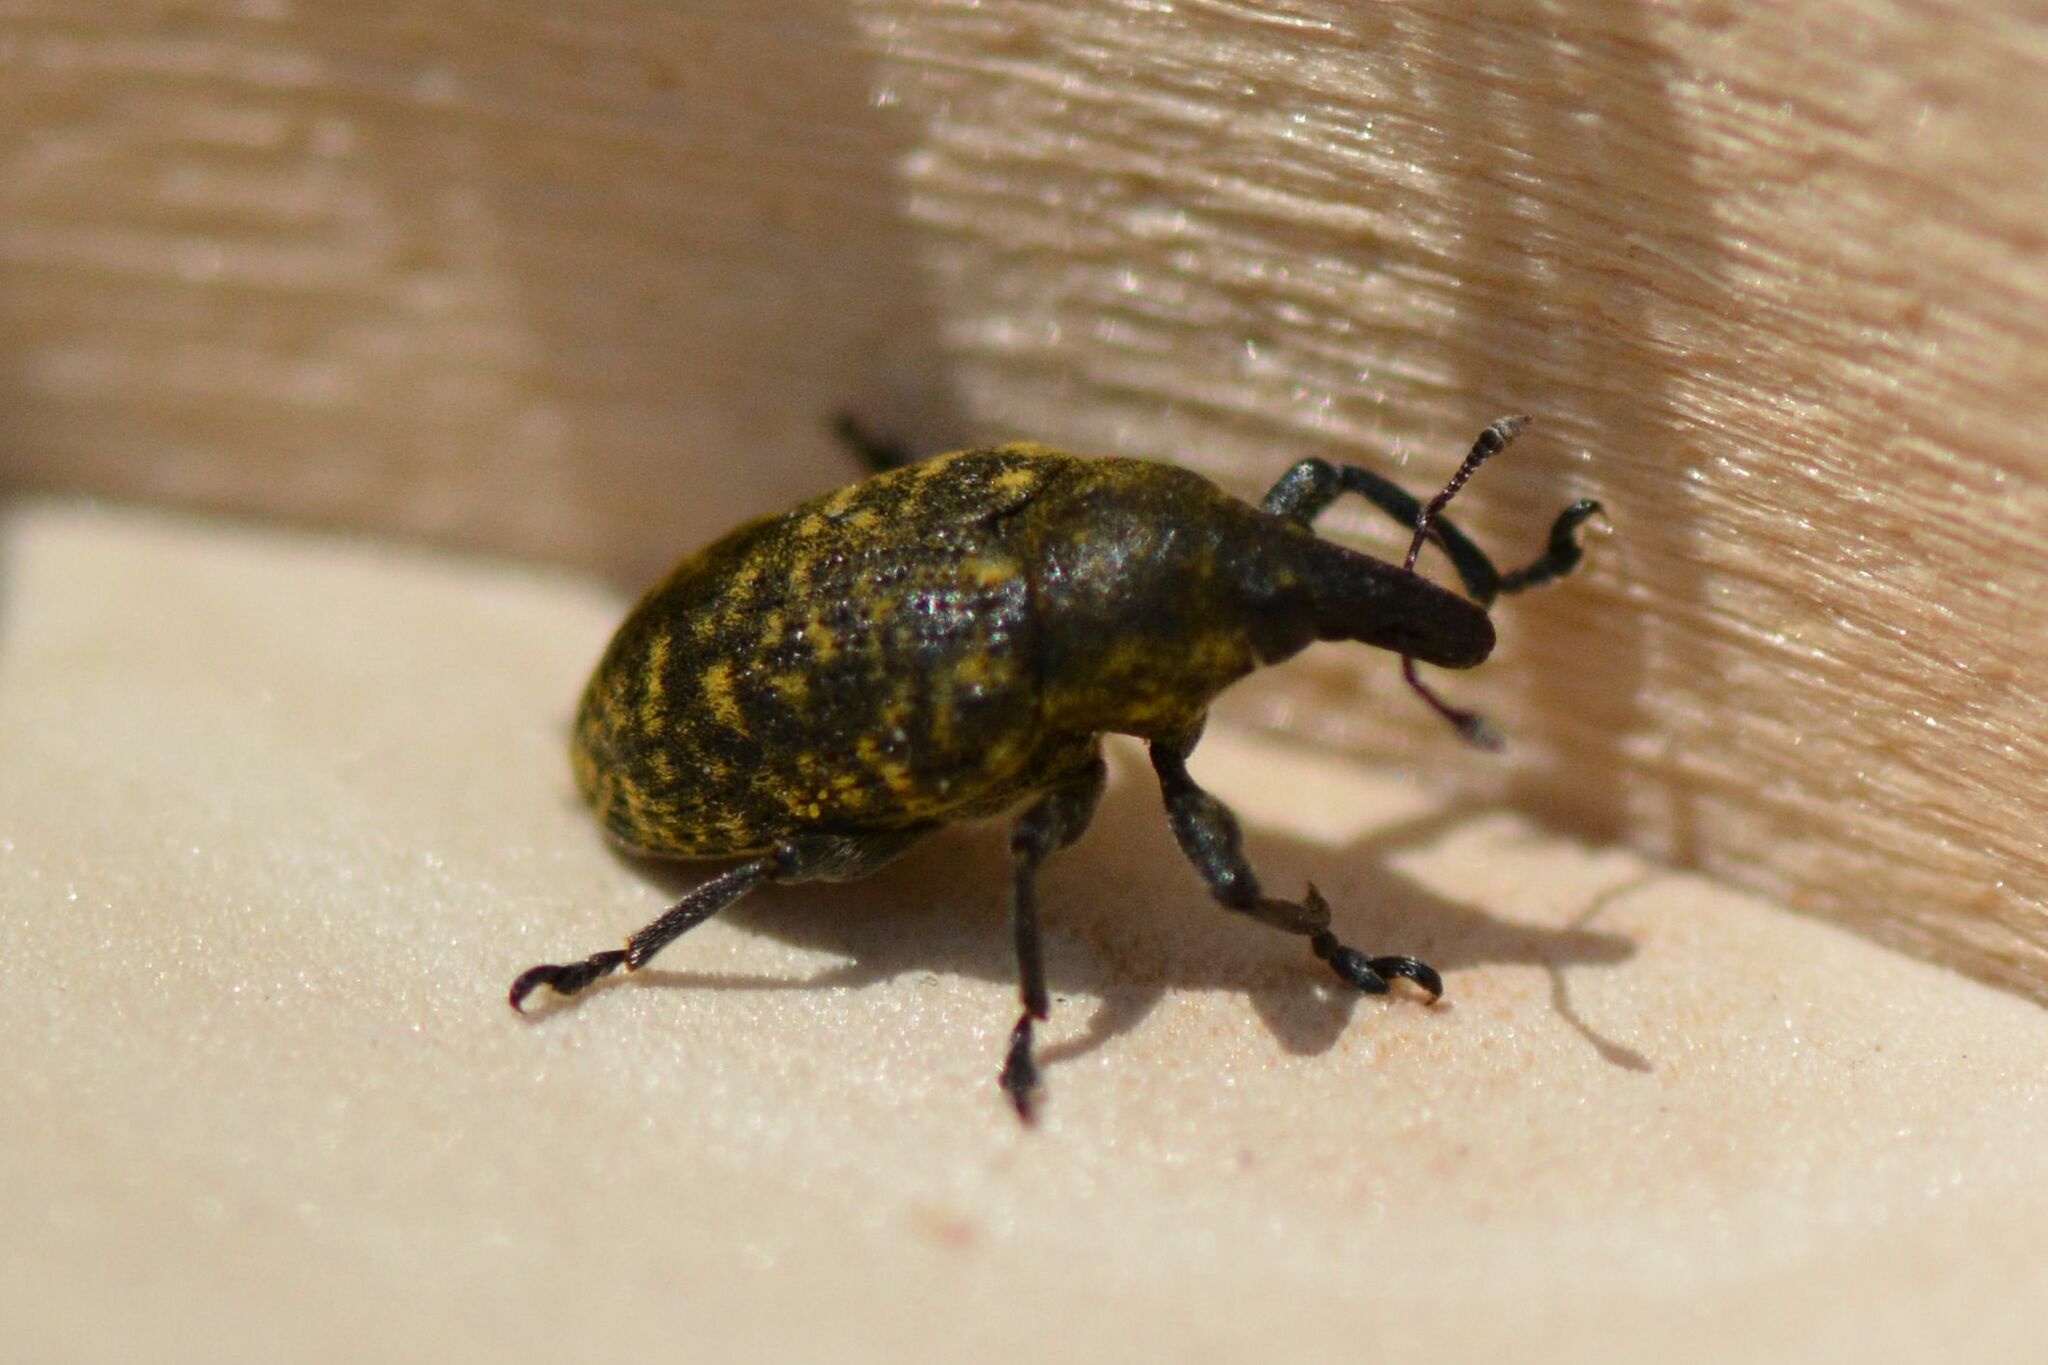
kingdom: Animalia
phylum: Arthropoda
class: Insecta
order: Coleoptera
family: Curculionidae
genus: Larinus
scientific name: Larinus turbinatus
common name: Weevil
